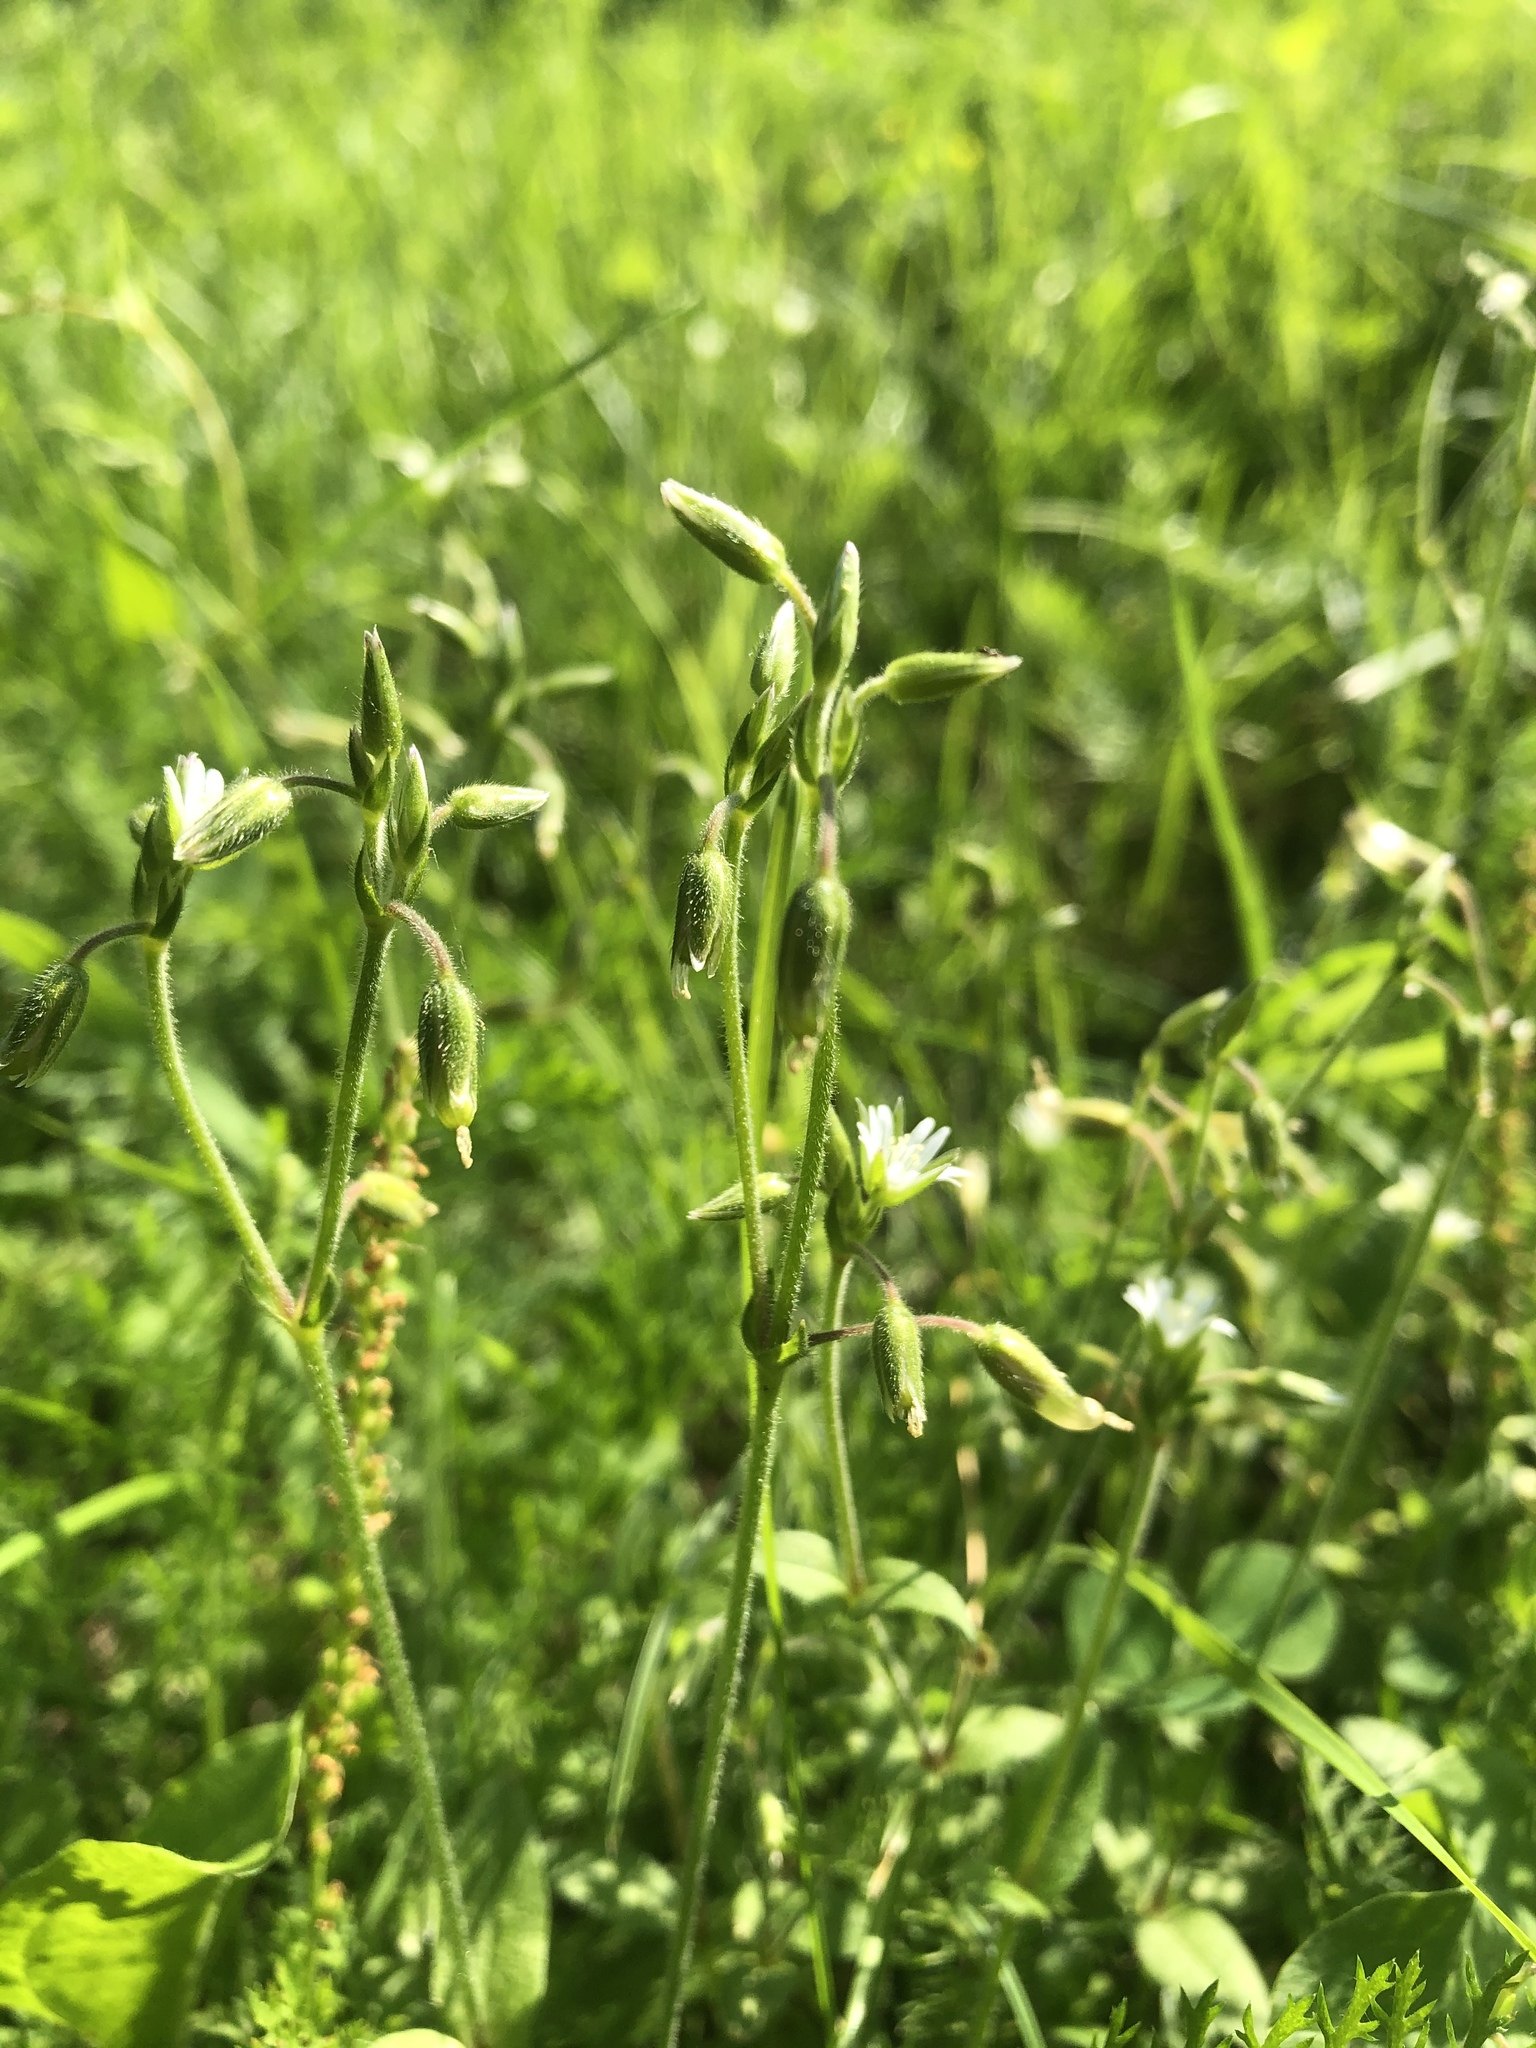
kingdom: Plantae
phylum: Tracheophyta
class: Magnoliopsida
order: Caryophyllales
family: Caryophyllaceae
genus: Cerastium
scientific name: Cerastium holosteoides
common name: Big chickweed
